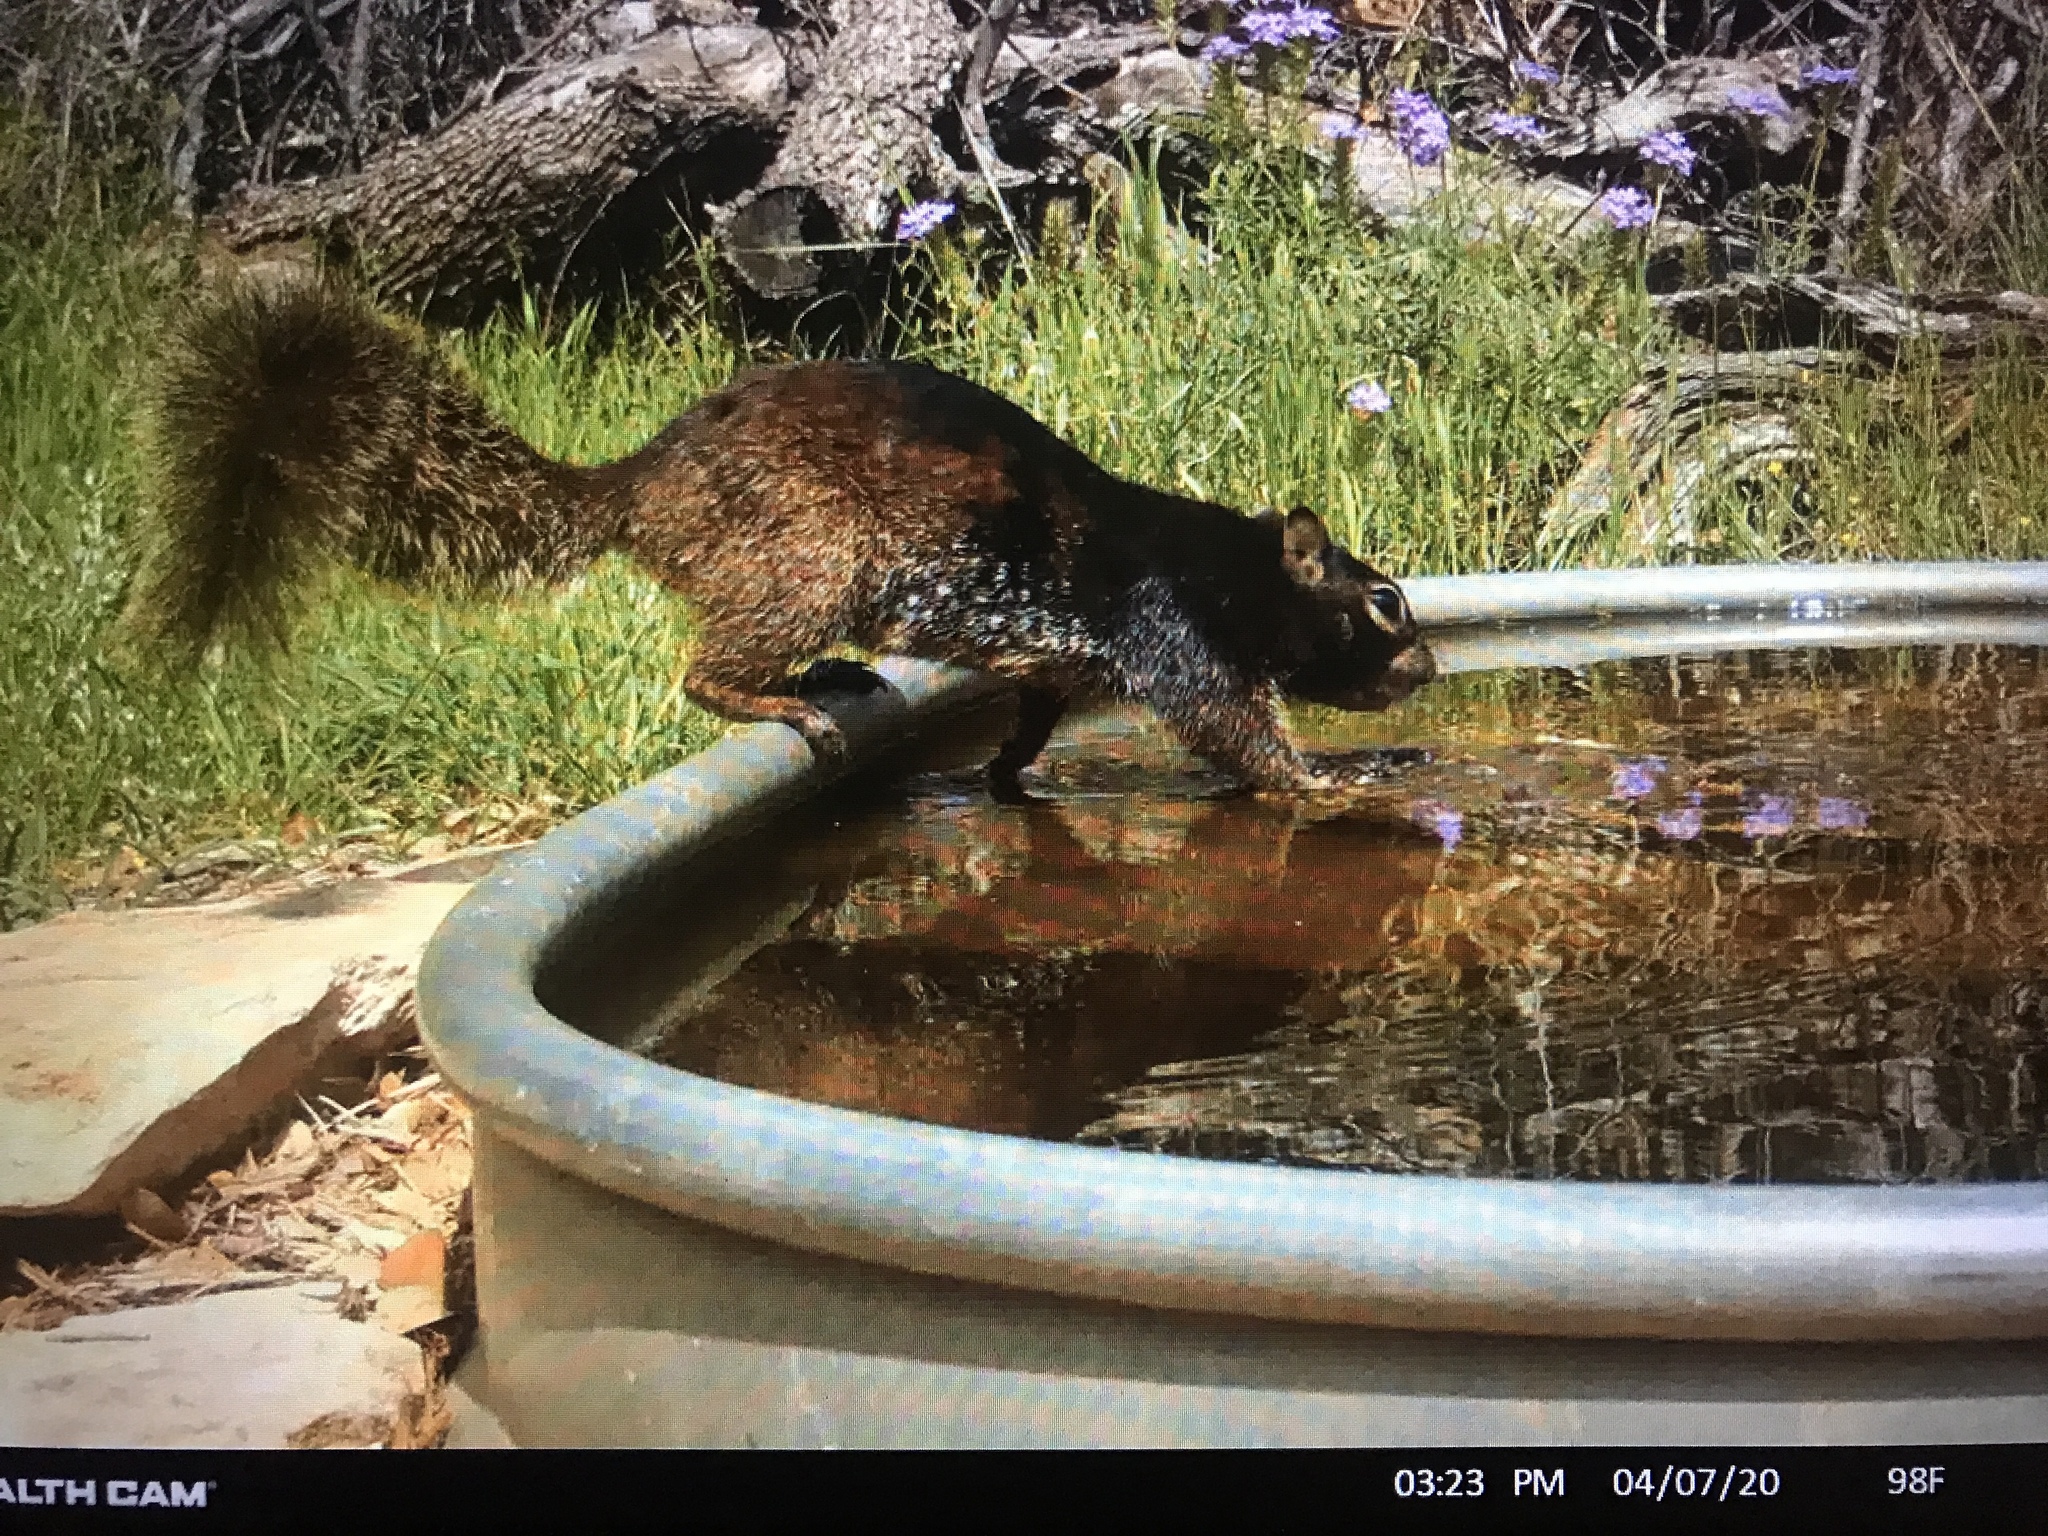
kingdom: Animalia
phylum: Chordata
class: Mammalia
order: Rodentia
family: Sciuridae
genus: Otospermophilus
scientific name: Otospermophilus variegatus
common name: Rock squirrel
